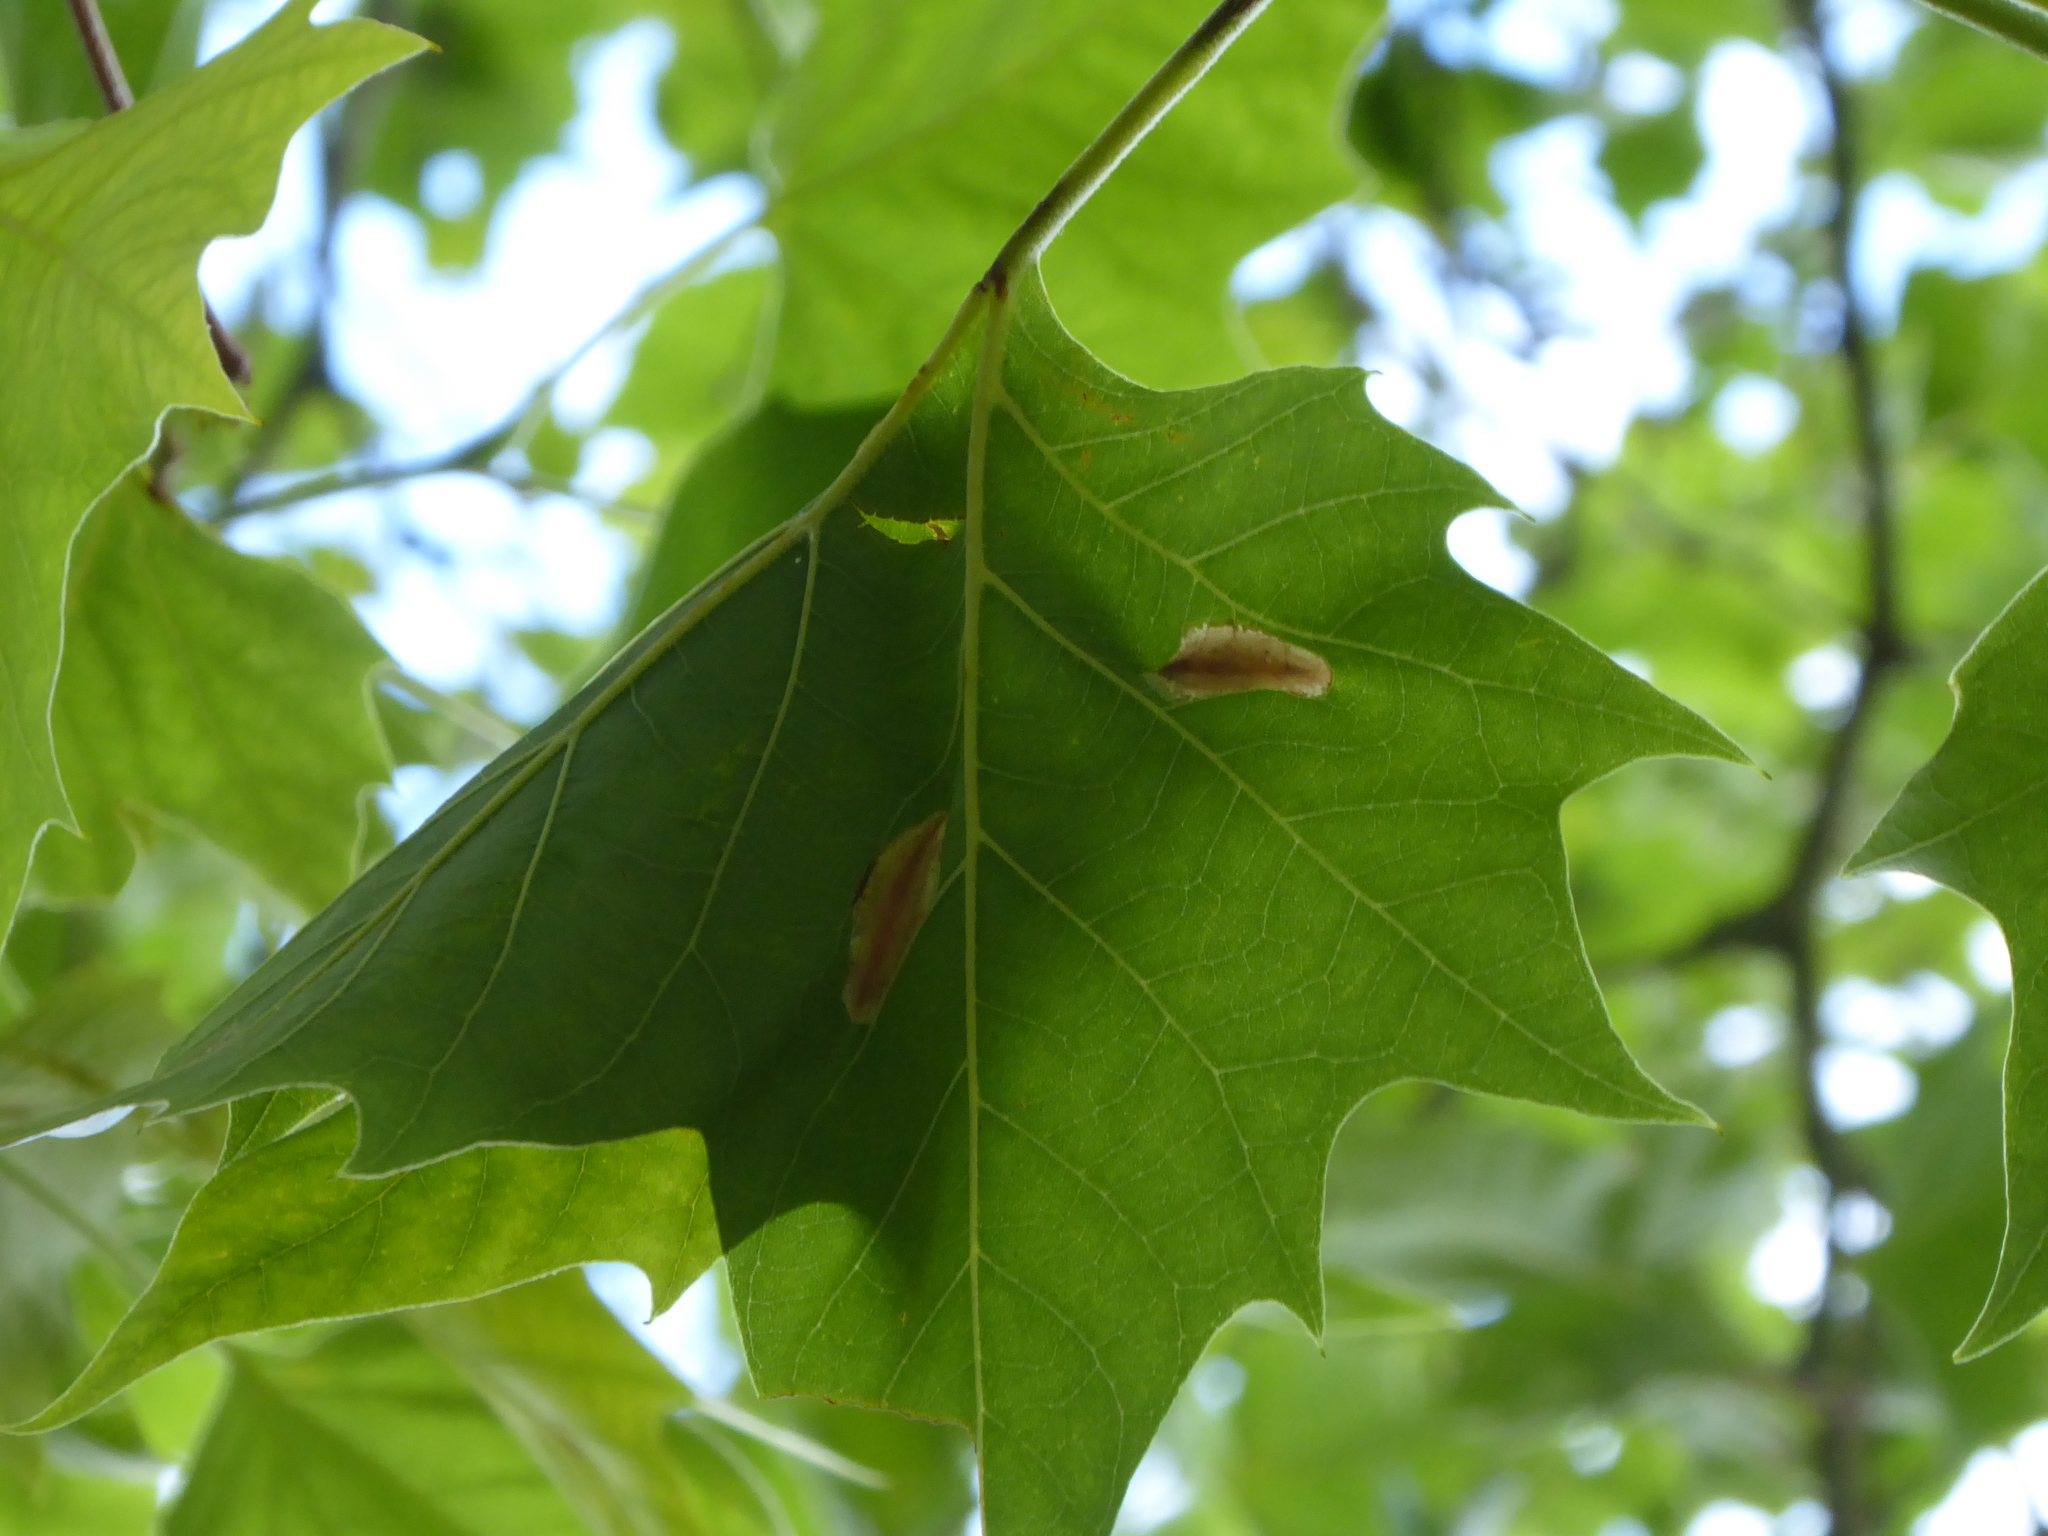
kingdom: Animalia
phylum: Arthropoda
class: Insecta
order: Lepidoptera
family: Gracillariidae
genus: Phyllonorycter
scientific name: Phyllonorycter platani
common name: London midget
